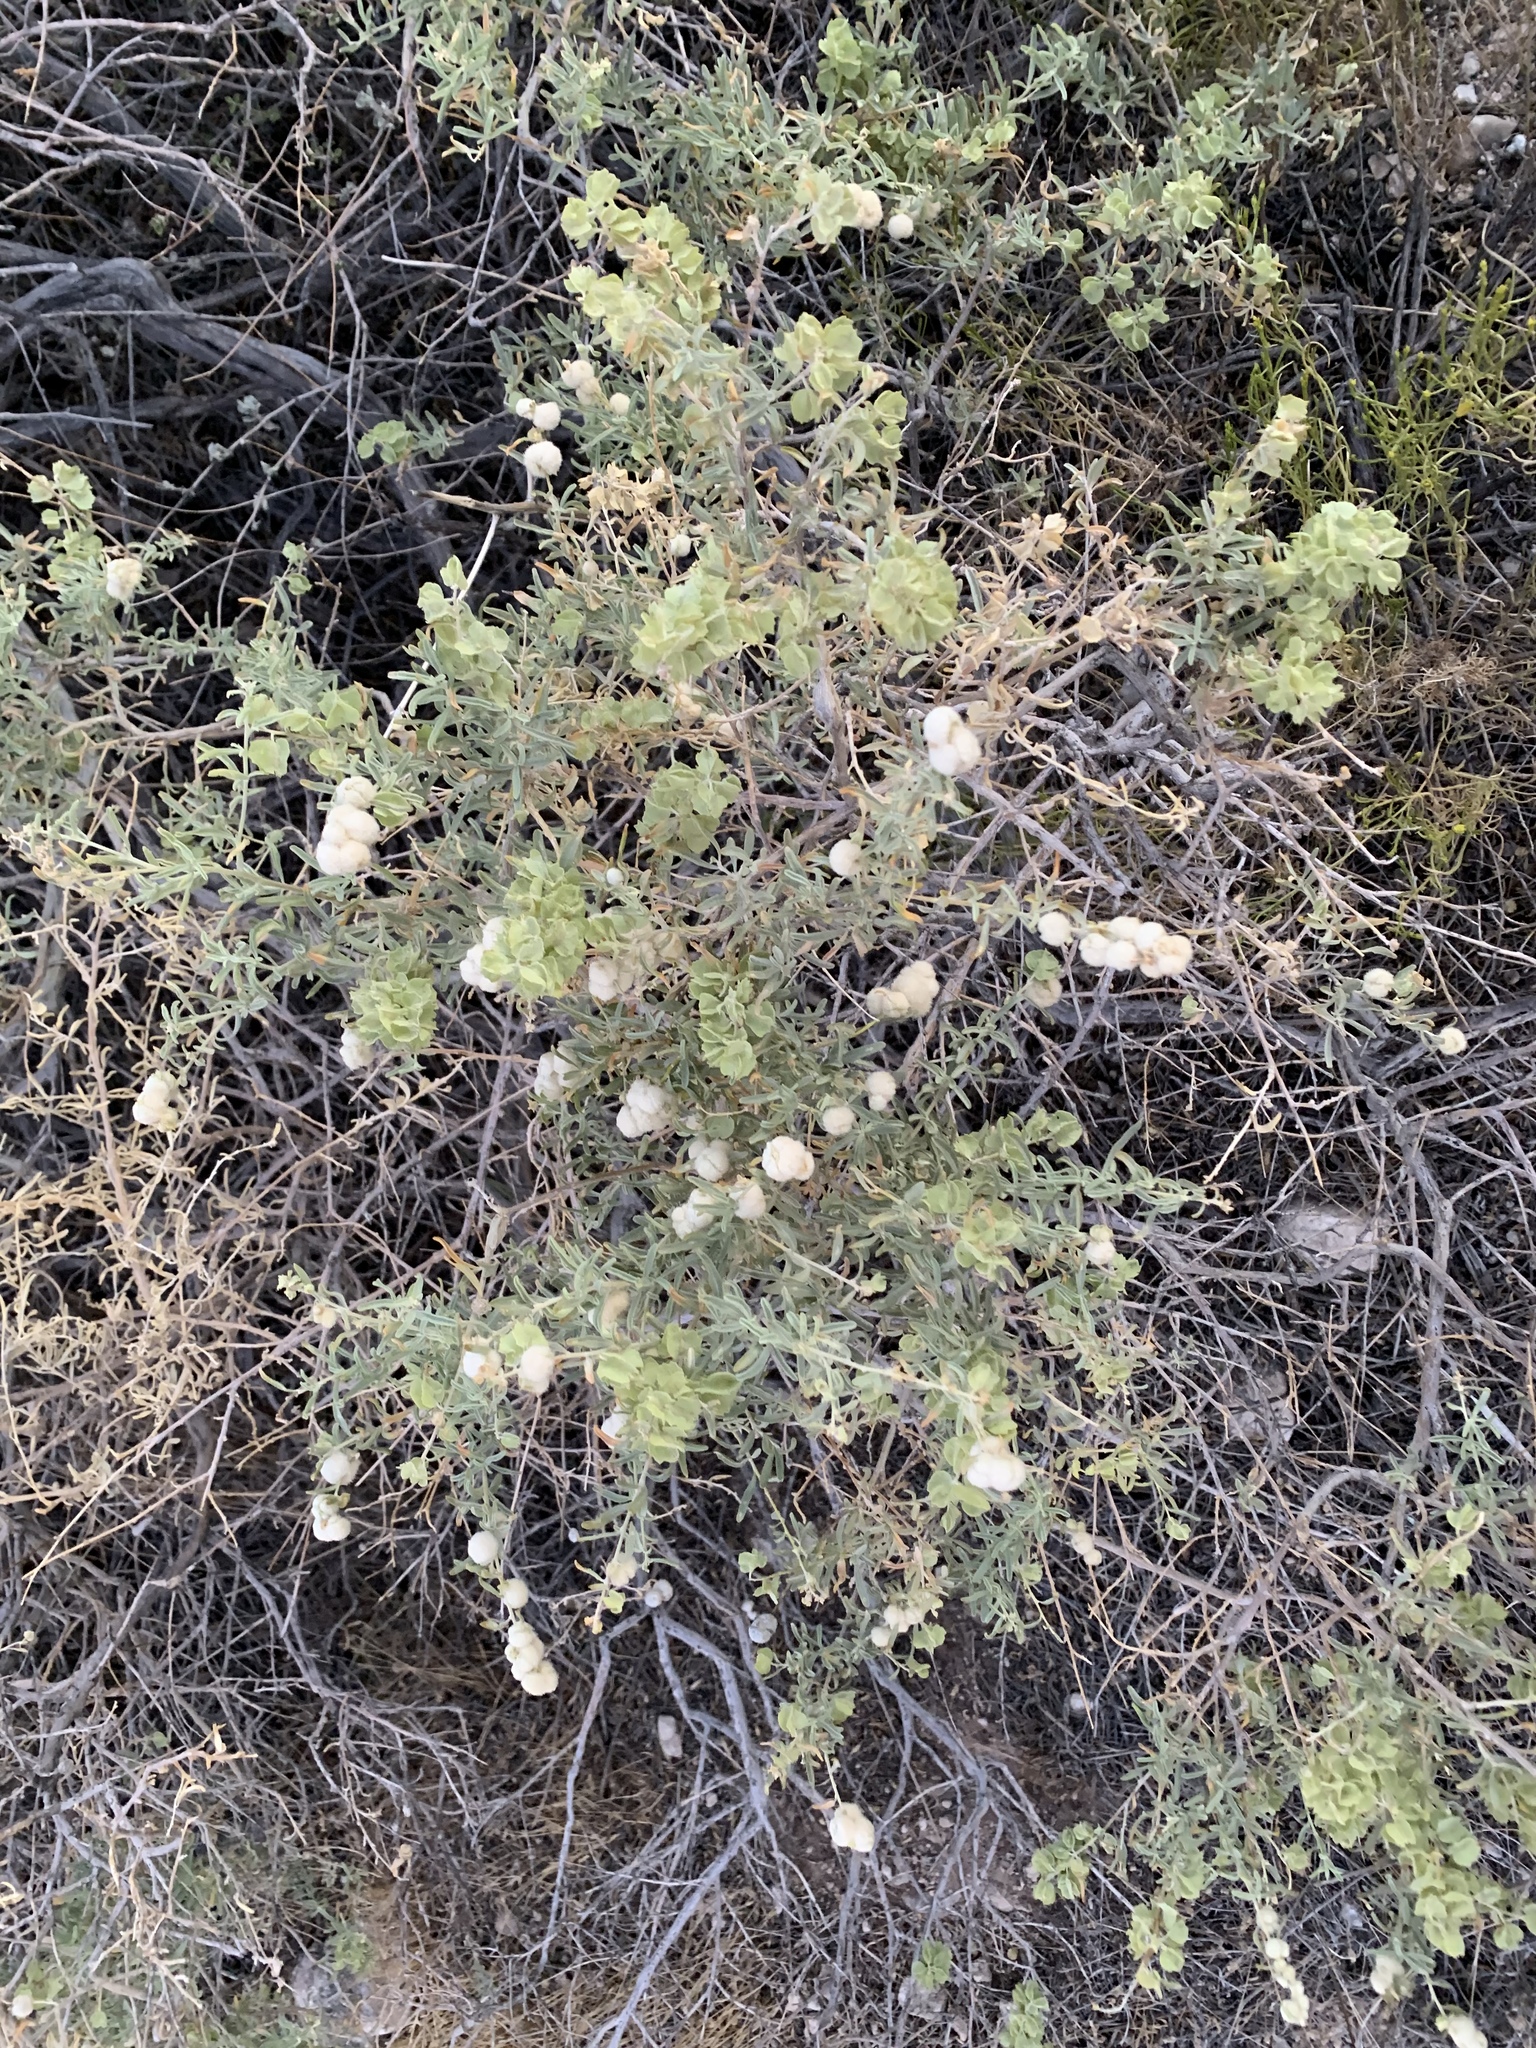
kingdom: Plantae
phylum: Tracheophyta
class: Magnoliopsida
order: Caryophyllales
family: Amaranthaceae
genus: Atriplex
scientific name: Atriplex canescens
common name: Four-wing saltbush
